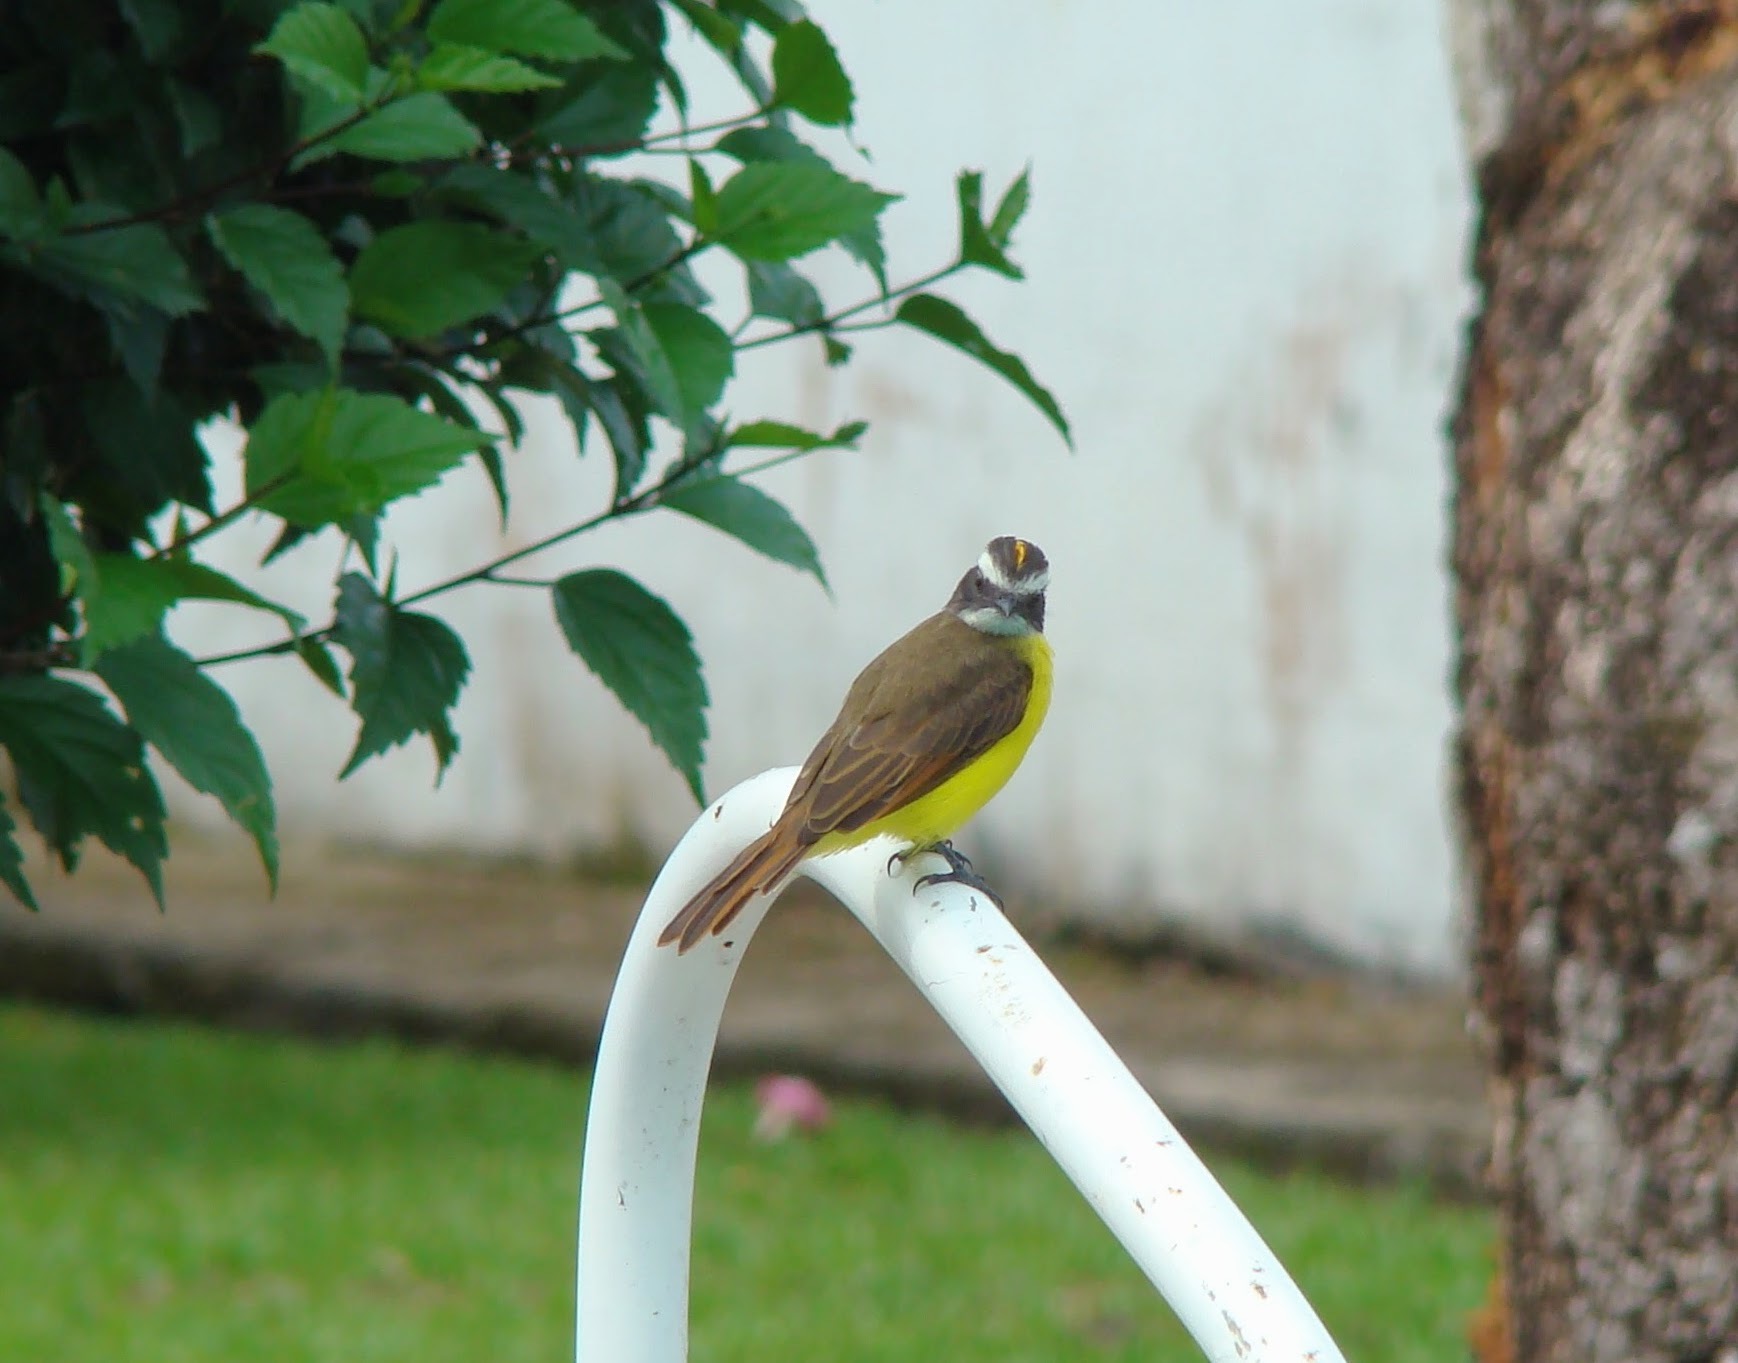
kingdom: Animalia
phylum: Chordata
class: Aves
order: Passeriformes
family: Tyrannidae
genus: Myiozetetes
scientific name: Myiozetetes cayanensis
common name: Rusty-margined flycatcher
